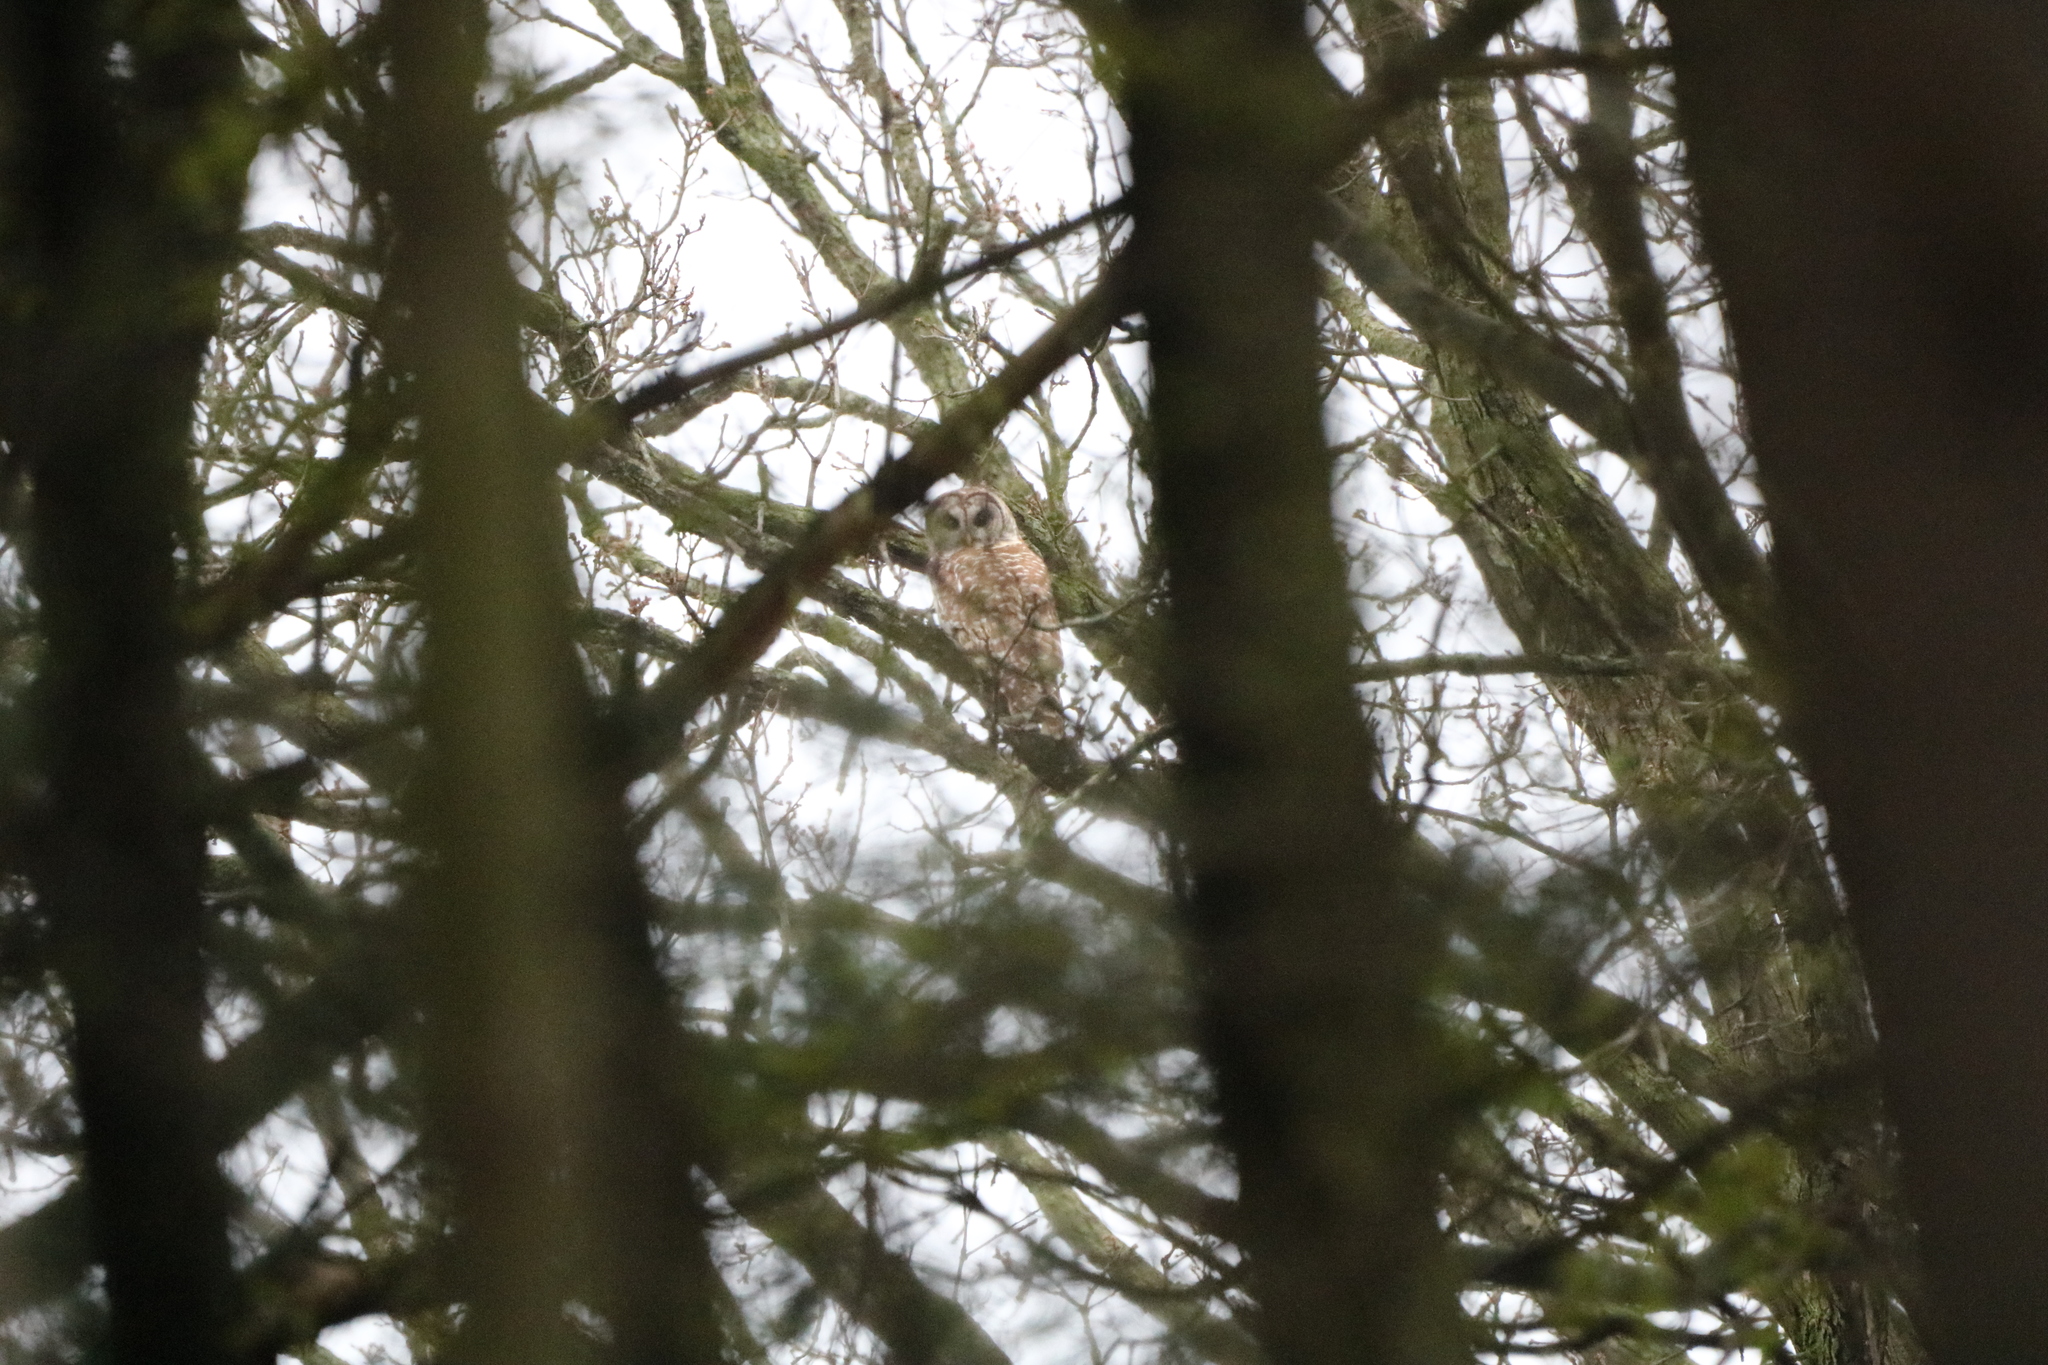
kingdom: Animalia
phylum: Chordata
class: Aves
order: Strigiformes
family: Strigidae
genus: Strix
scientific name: Strix varia
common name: Barred owl
